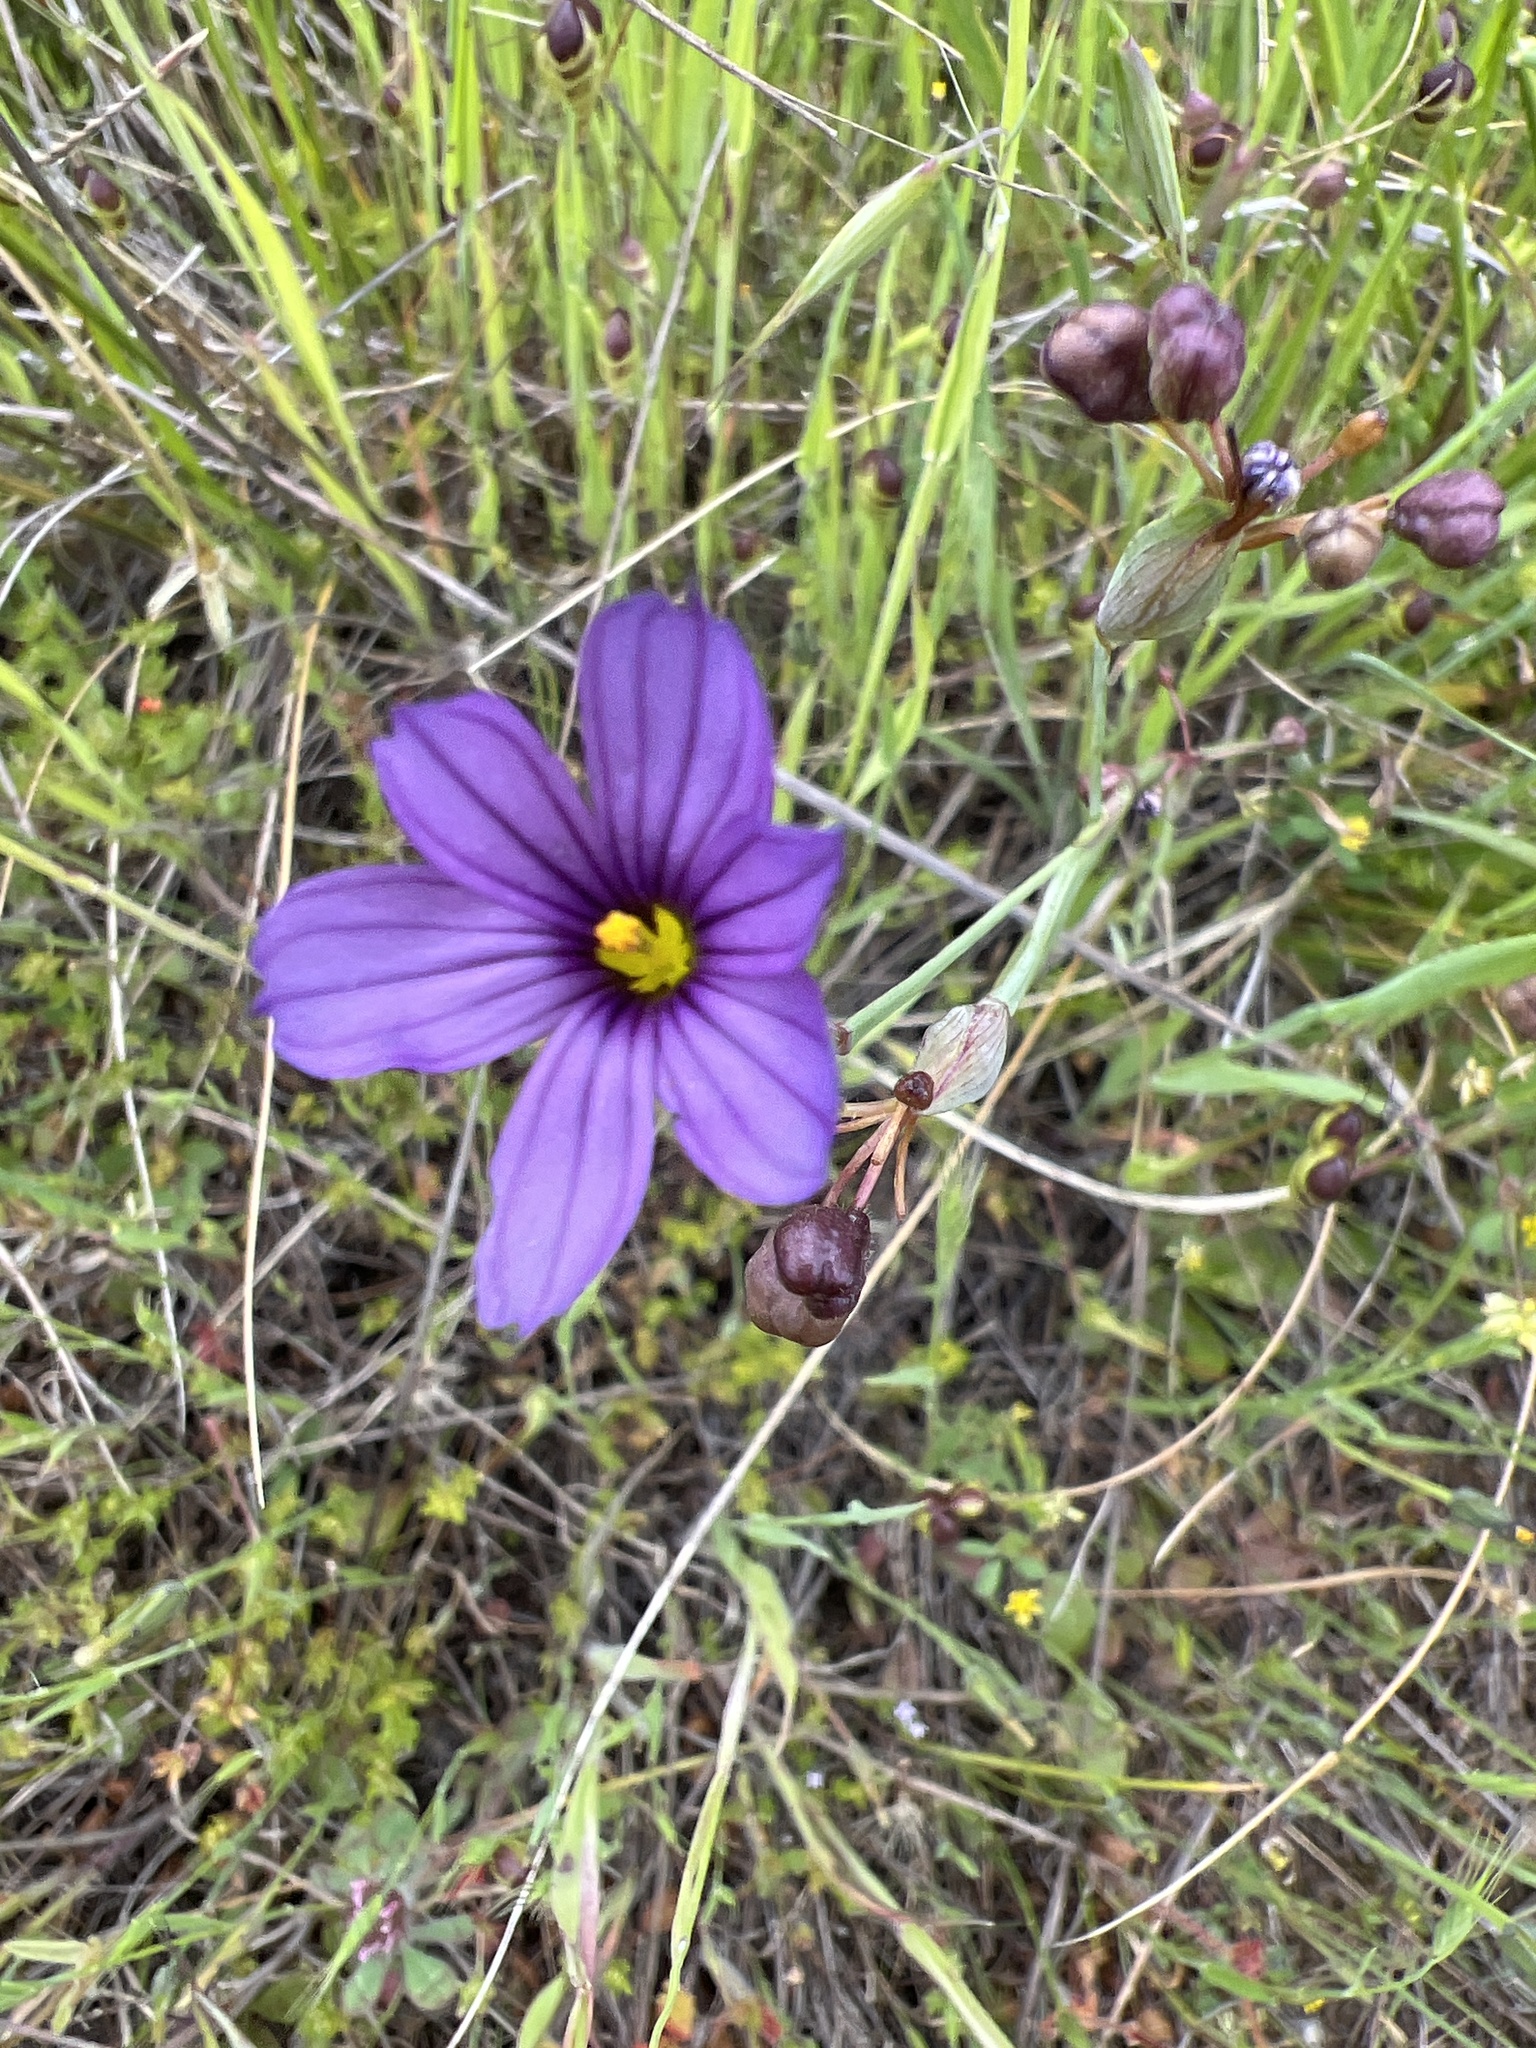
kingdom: Plantae
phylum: Tracheophyta
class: Liliopsida
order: Asparagales
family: Iridaceae
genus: Sisyrinchium
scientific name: Sisyrinchium bellum
